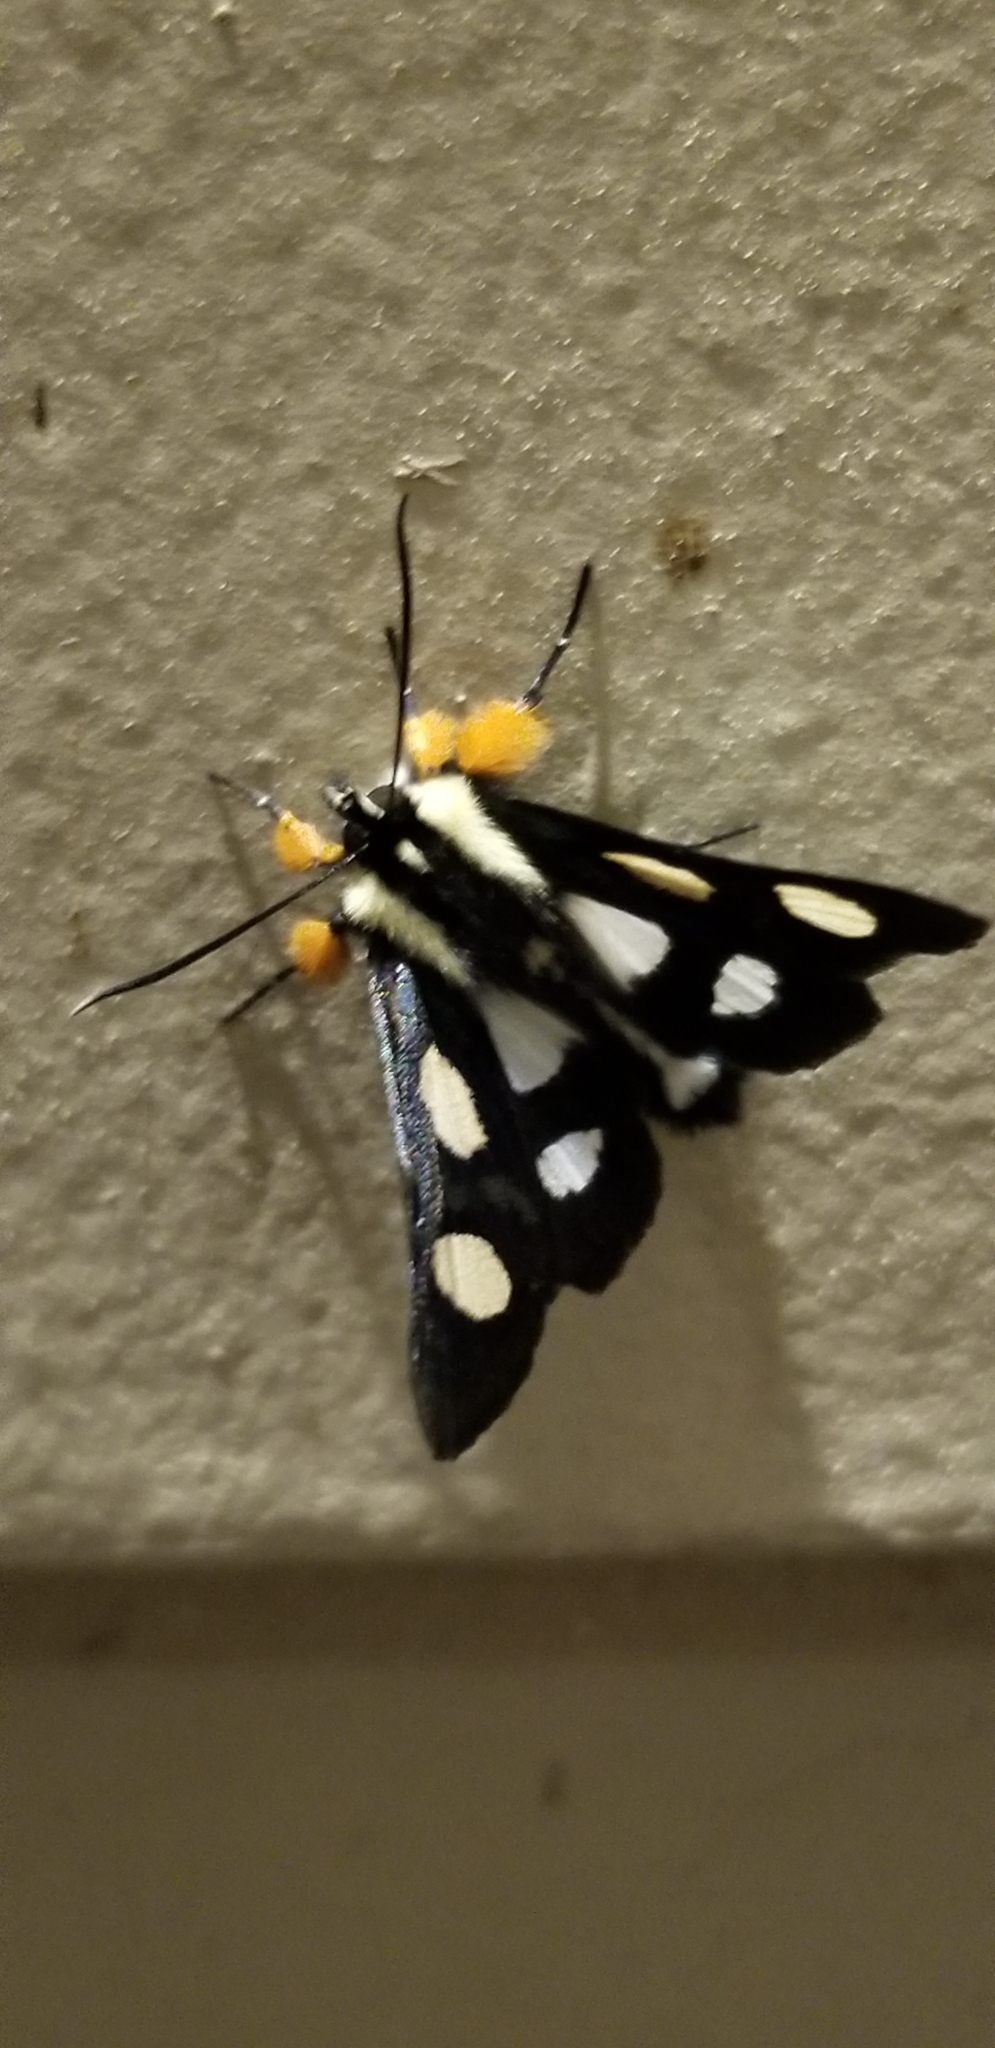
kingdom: Animalia
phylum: Arthropoda
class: Insecta
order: Lepidoptera
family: Noctuidae
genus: Alypia
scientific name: Alypia octomaculata
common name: Eight-spotted forester
